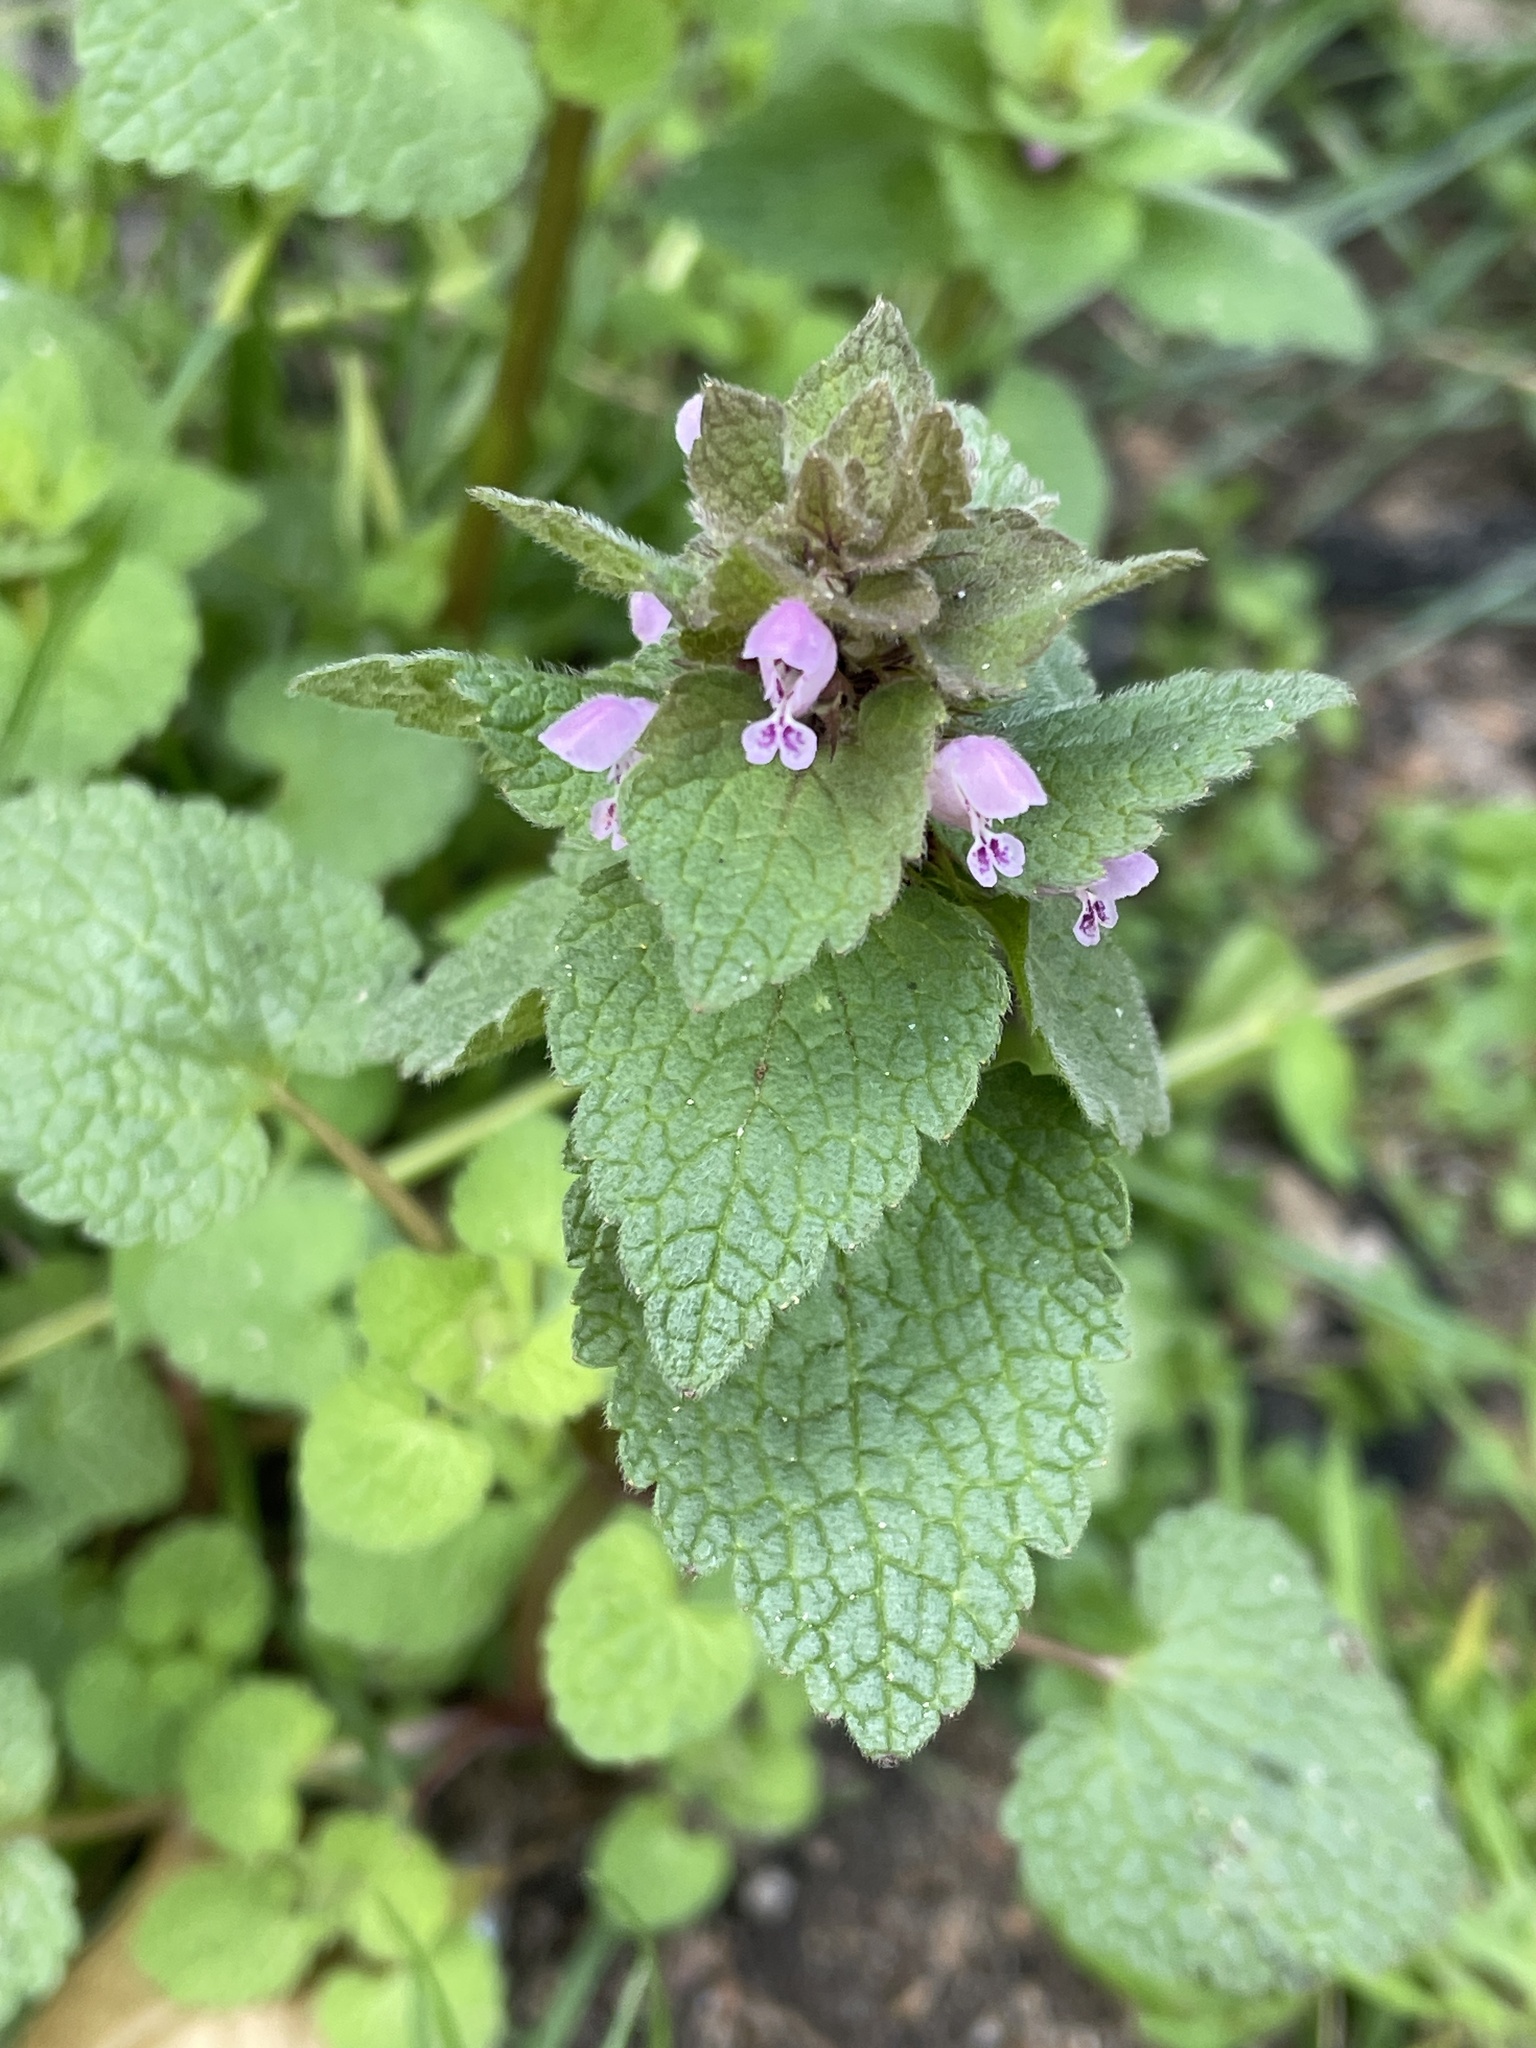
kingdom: Plantae
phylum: Tracheophyta
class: Magnoliopsida
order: Lamiales
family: Lamiaceae
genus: Lamium
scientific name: Lamium purpureum
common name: Red dead-nettle
